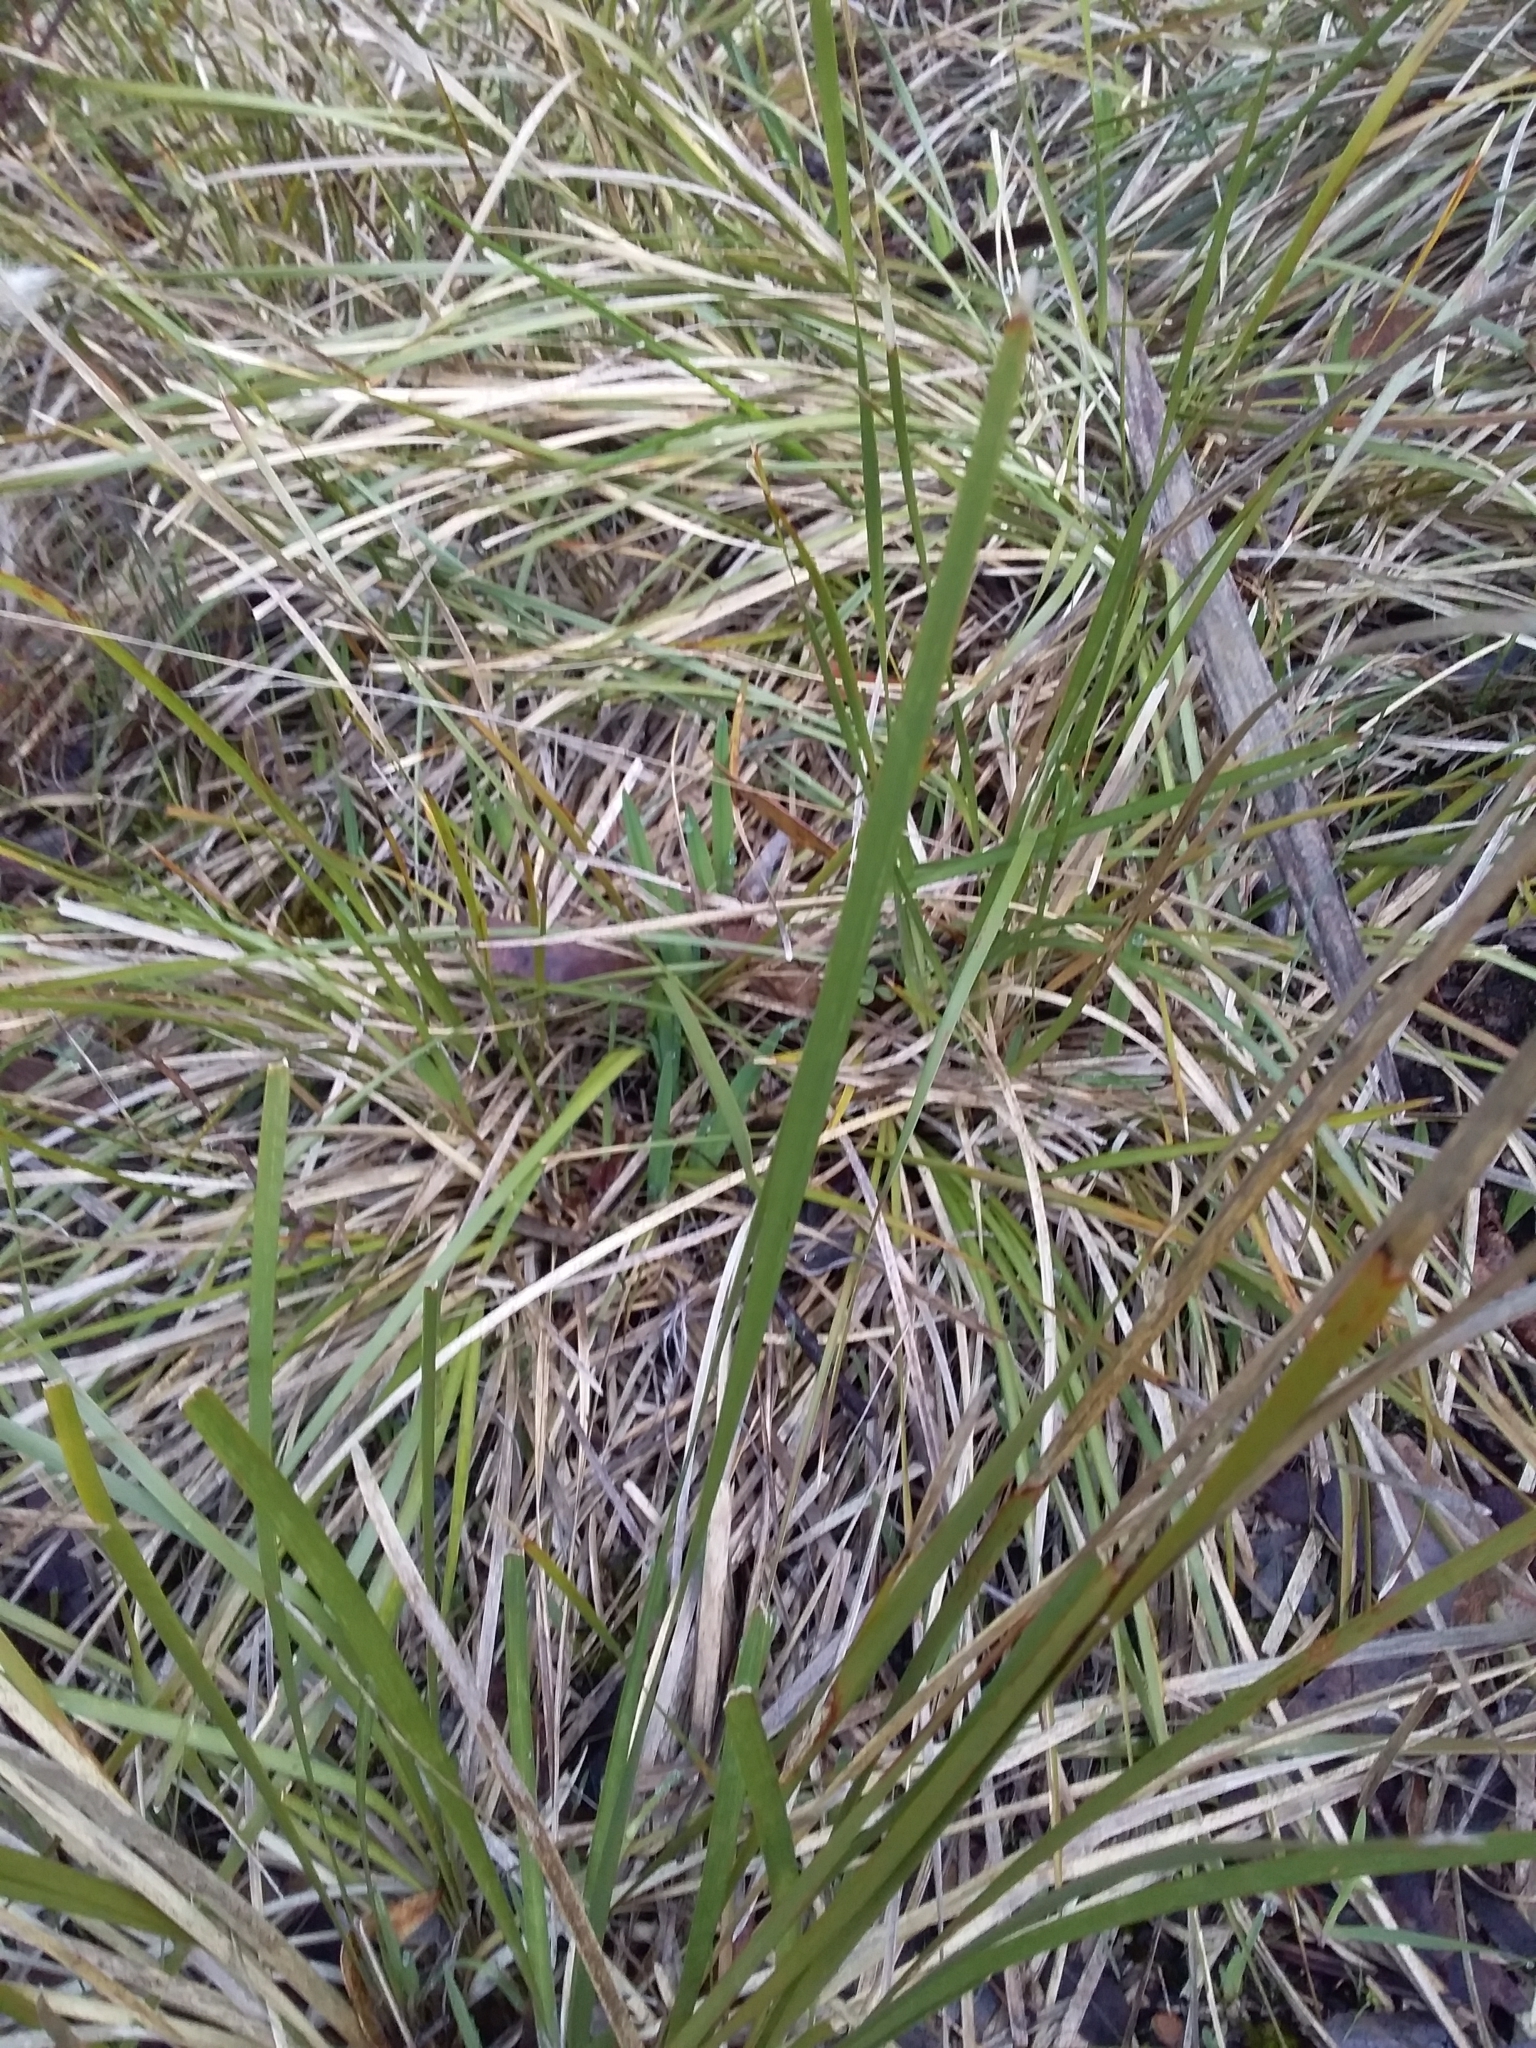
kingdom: Plantae
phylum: Tracheophyta
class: Liliopsida
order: Asparagales
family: Asparagaceae
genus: Lomandra
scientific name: Lomandra densiflora
